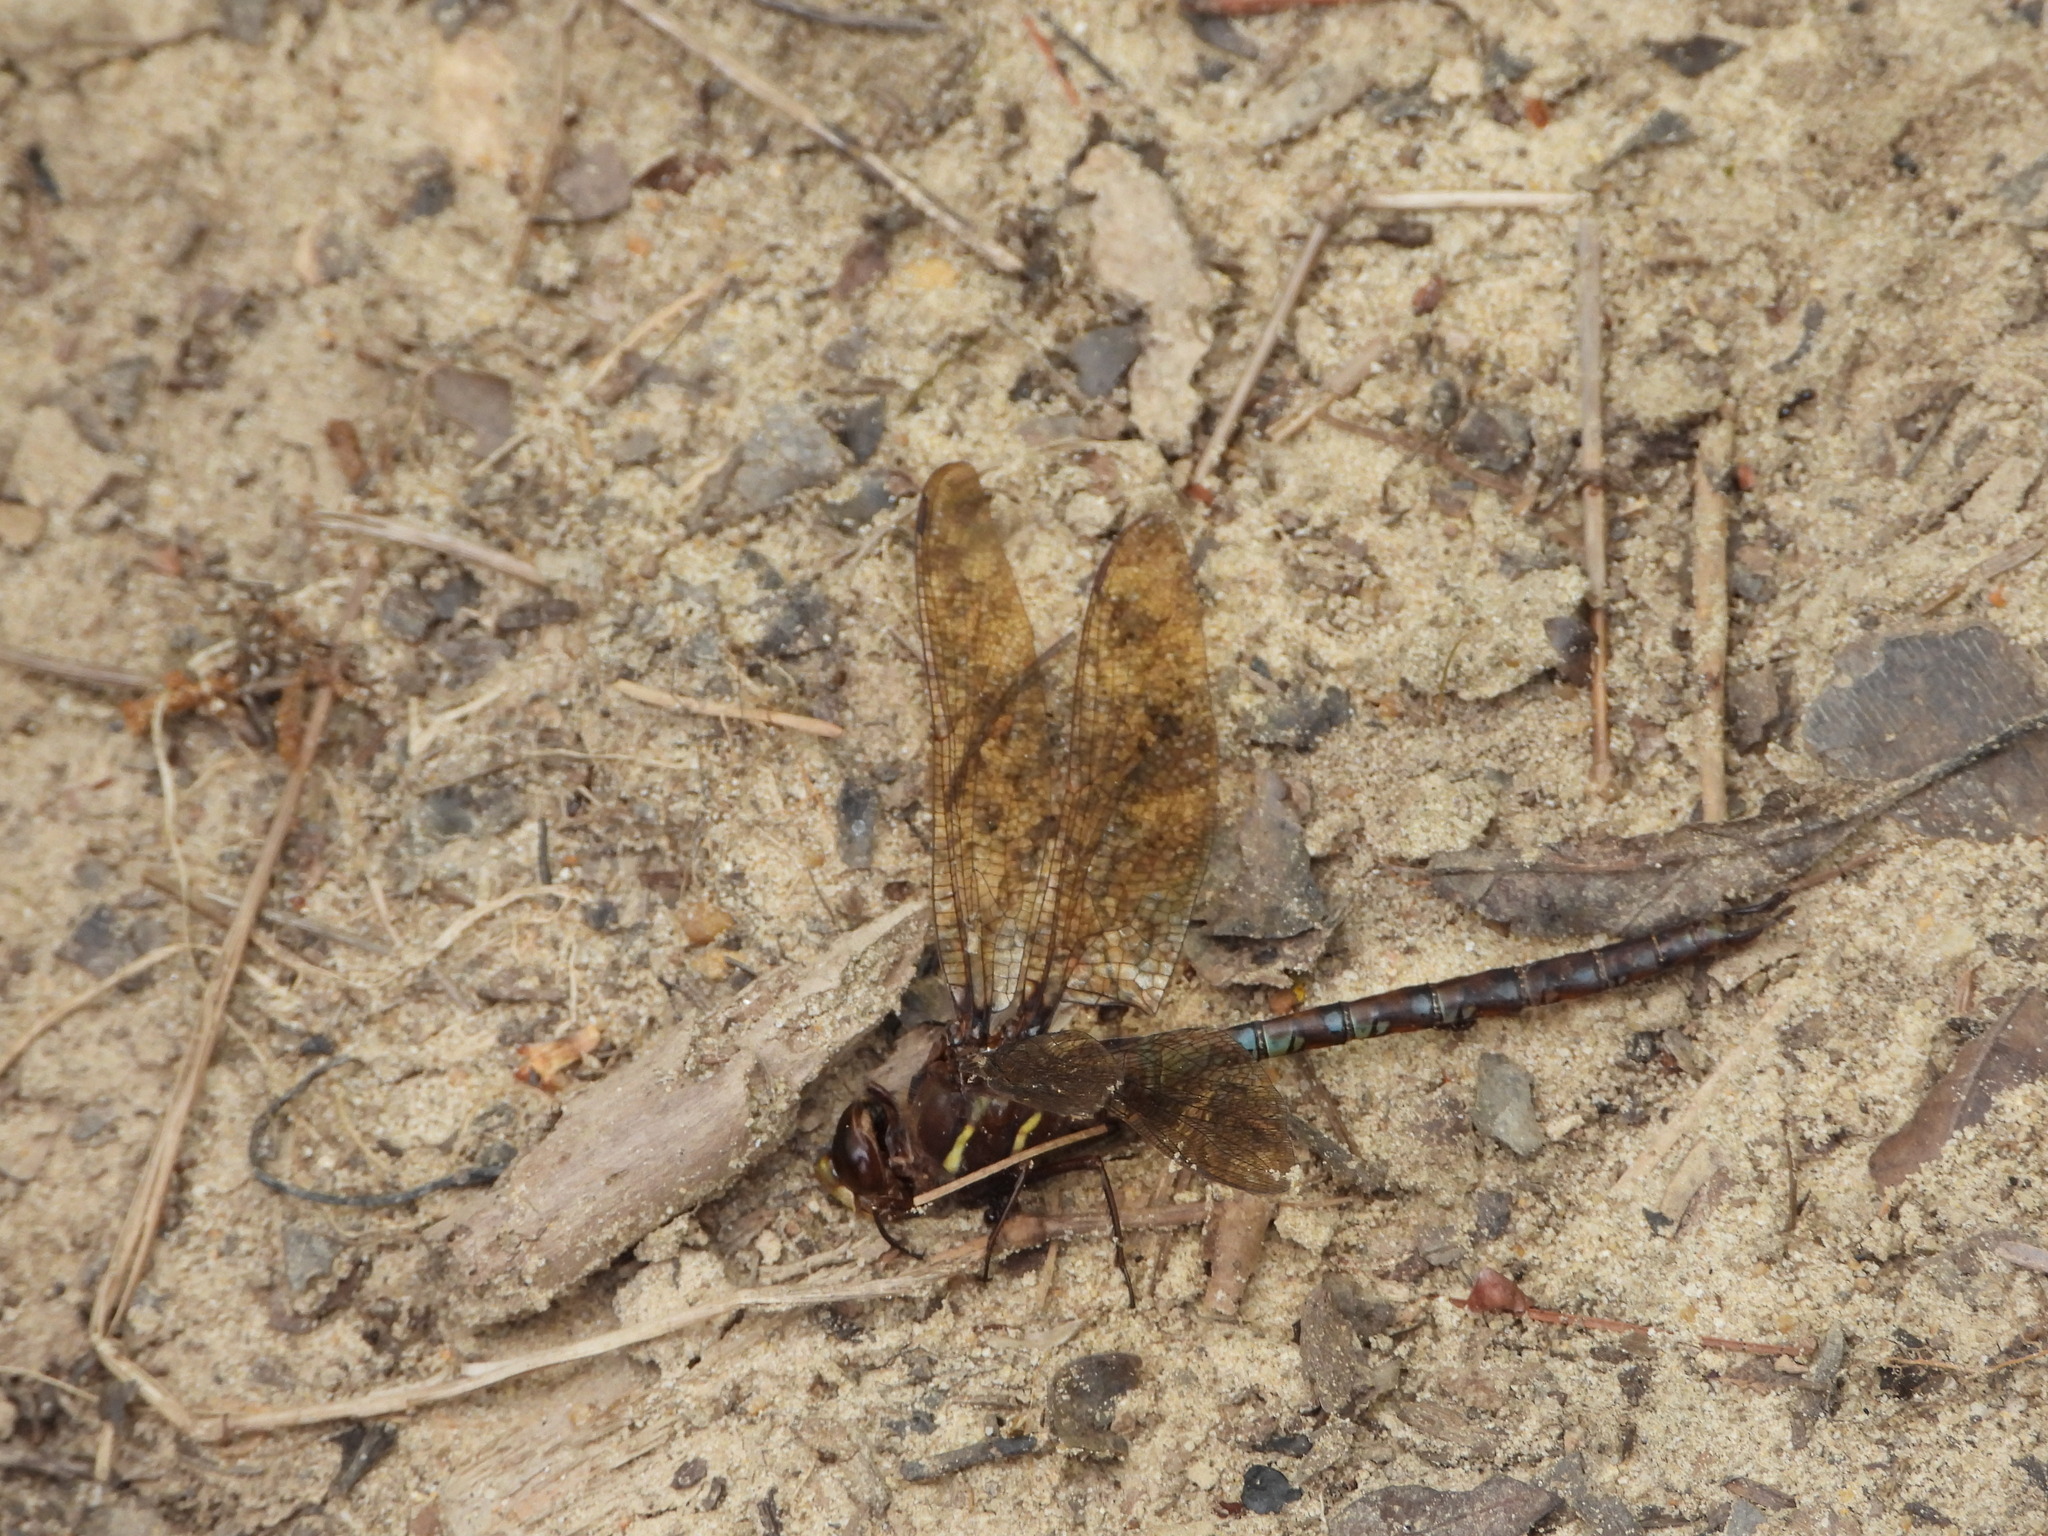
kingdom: Animalia
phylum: Arthropoda
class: Insecta
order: Odonata
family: Aeshnidae
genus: Basiaeschna
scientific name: Basiaeschna janata
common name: Springtime darner
